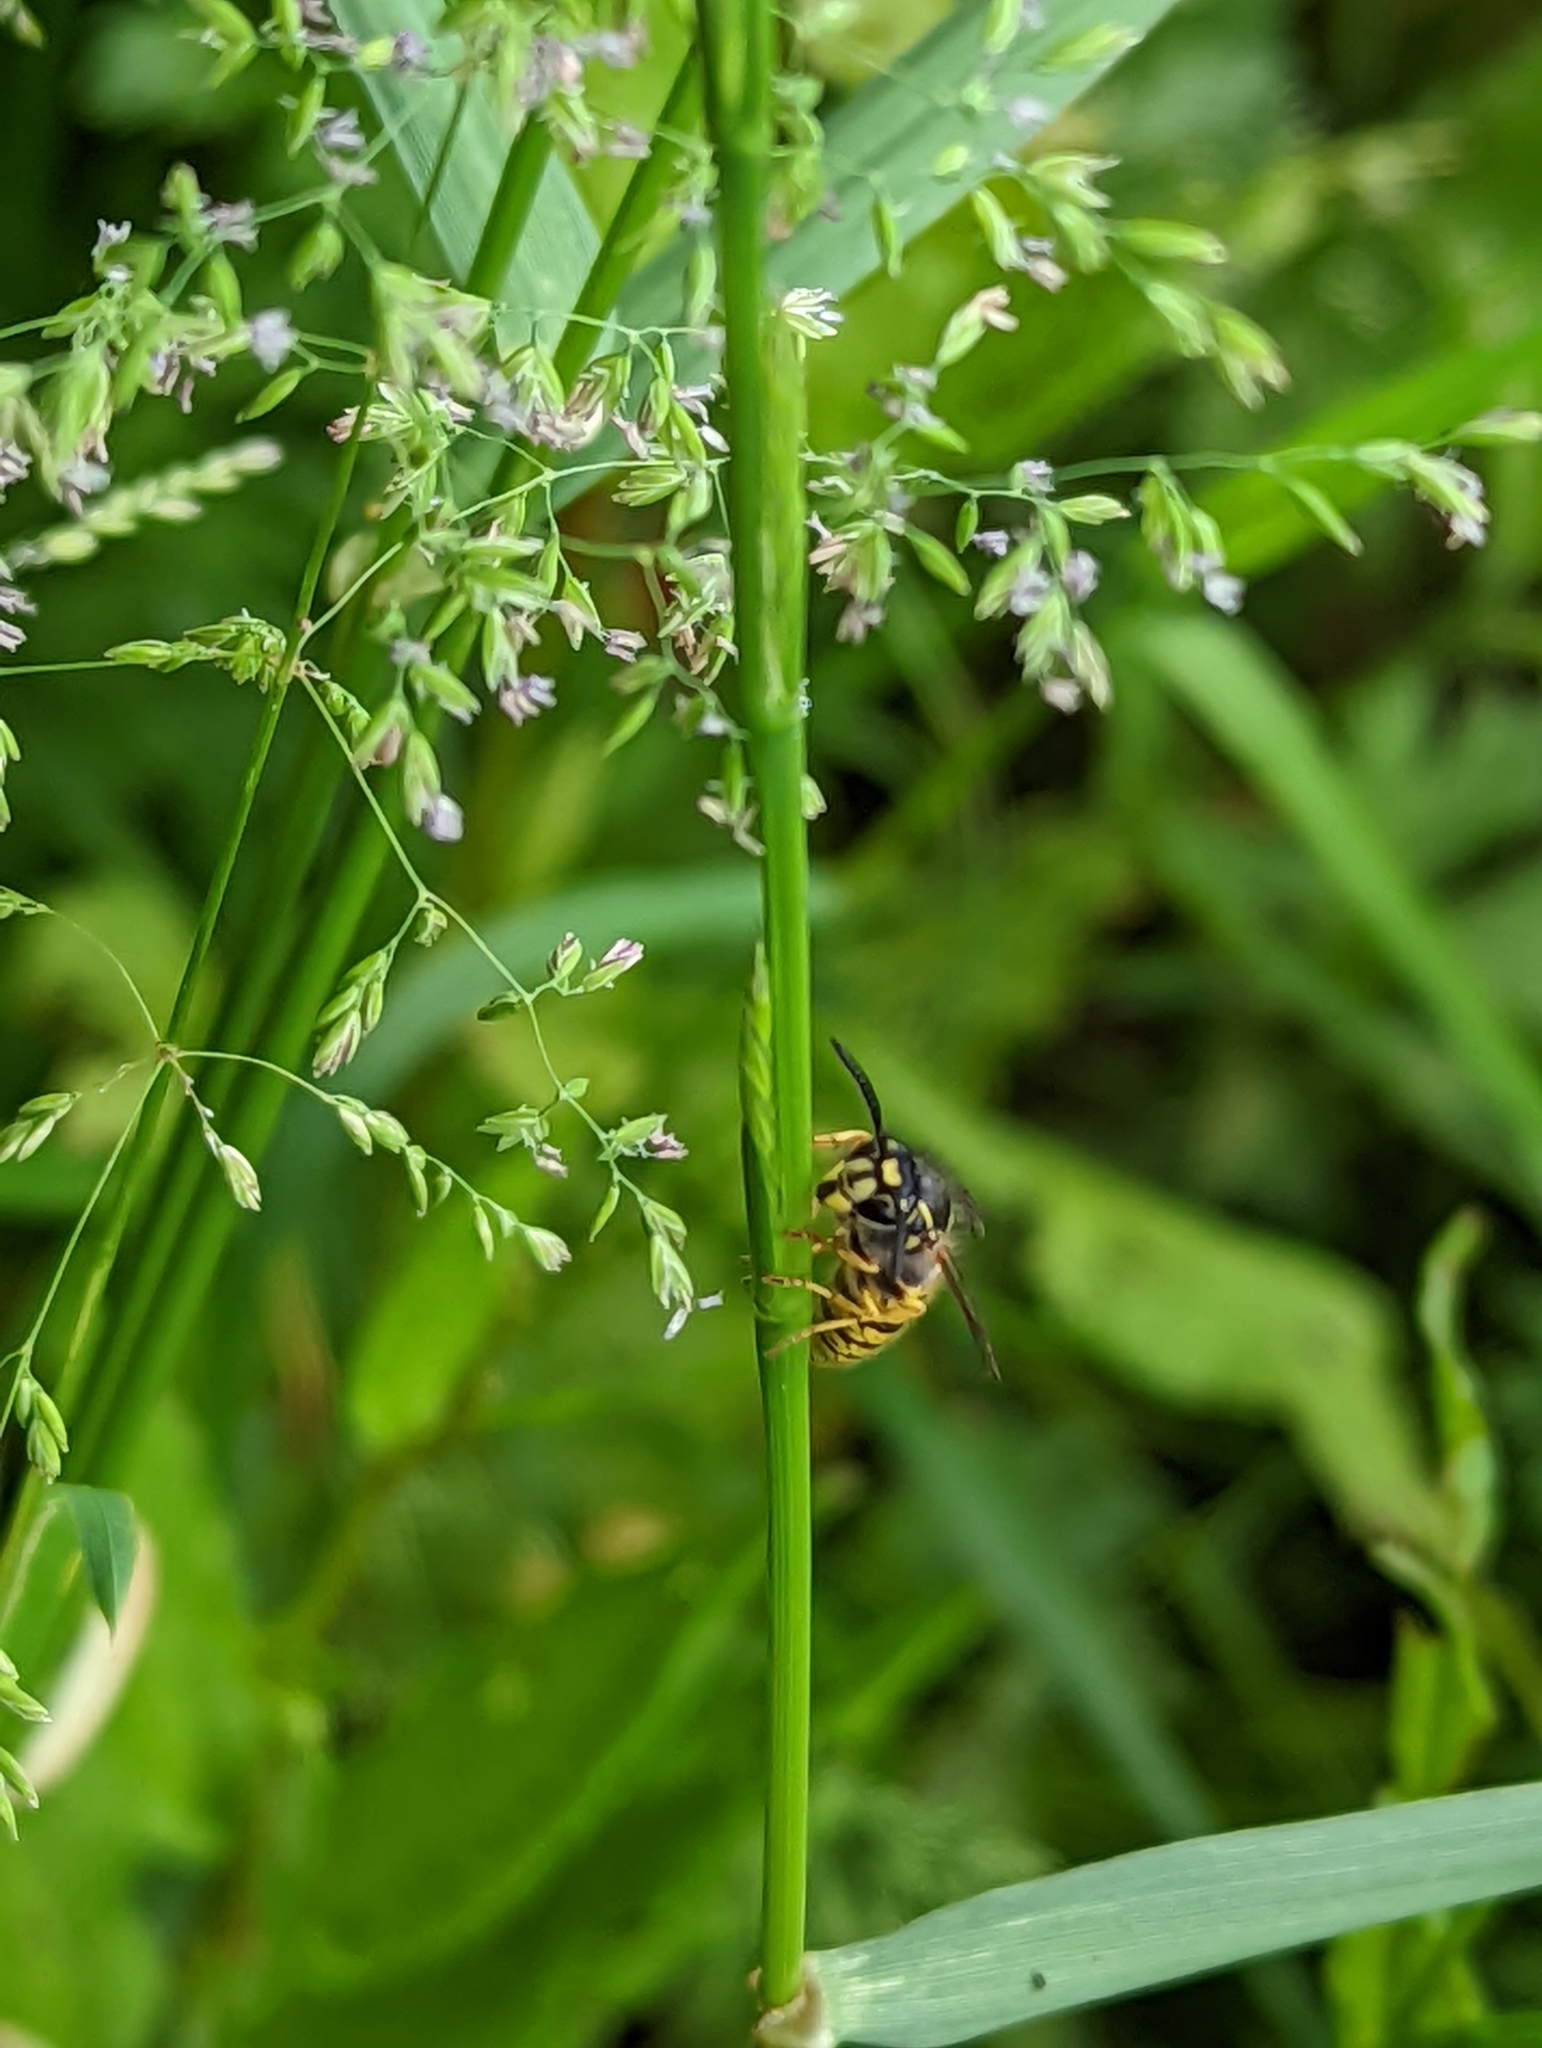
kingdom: Animalia
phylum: Arthropoda
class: Insecta
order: Hymenoptera
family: Vespidae
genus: Vespula
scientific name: Vespula vulgaris
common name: Common wasp
